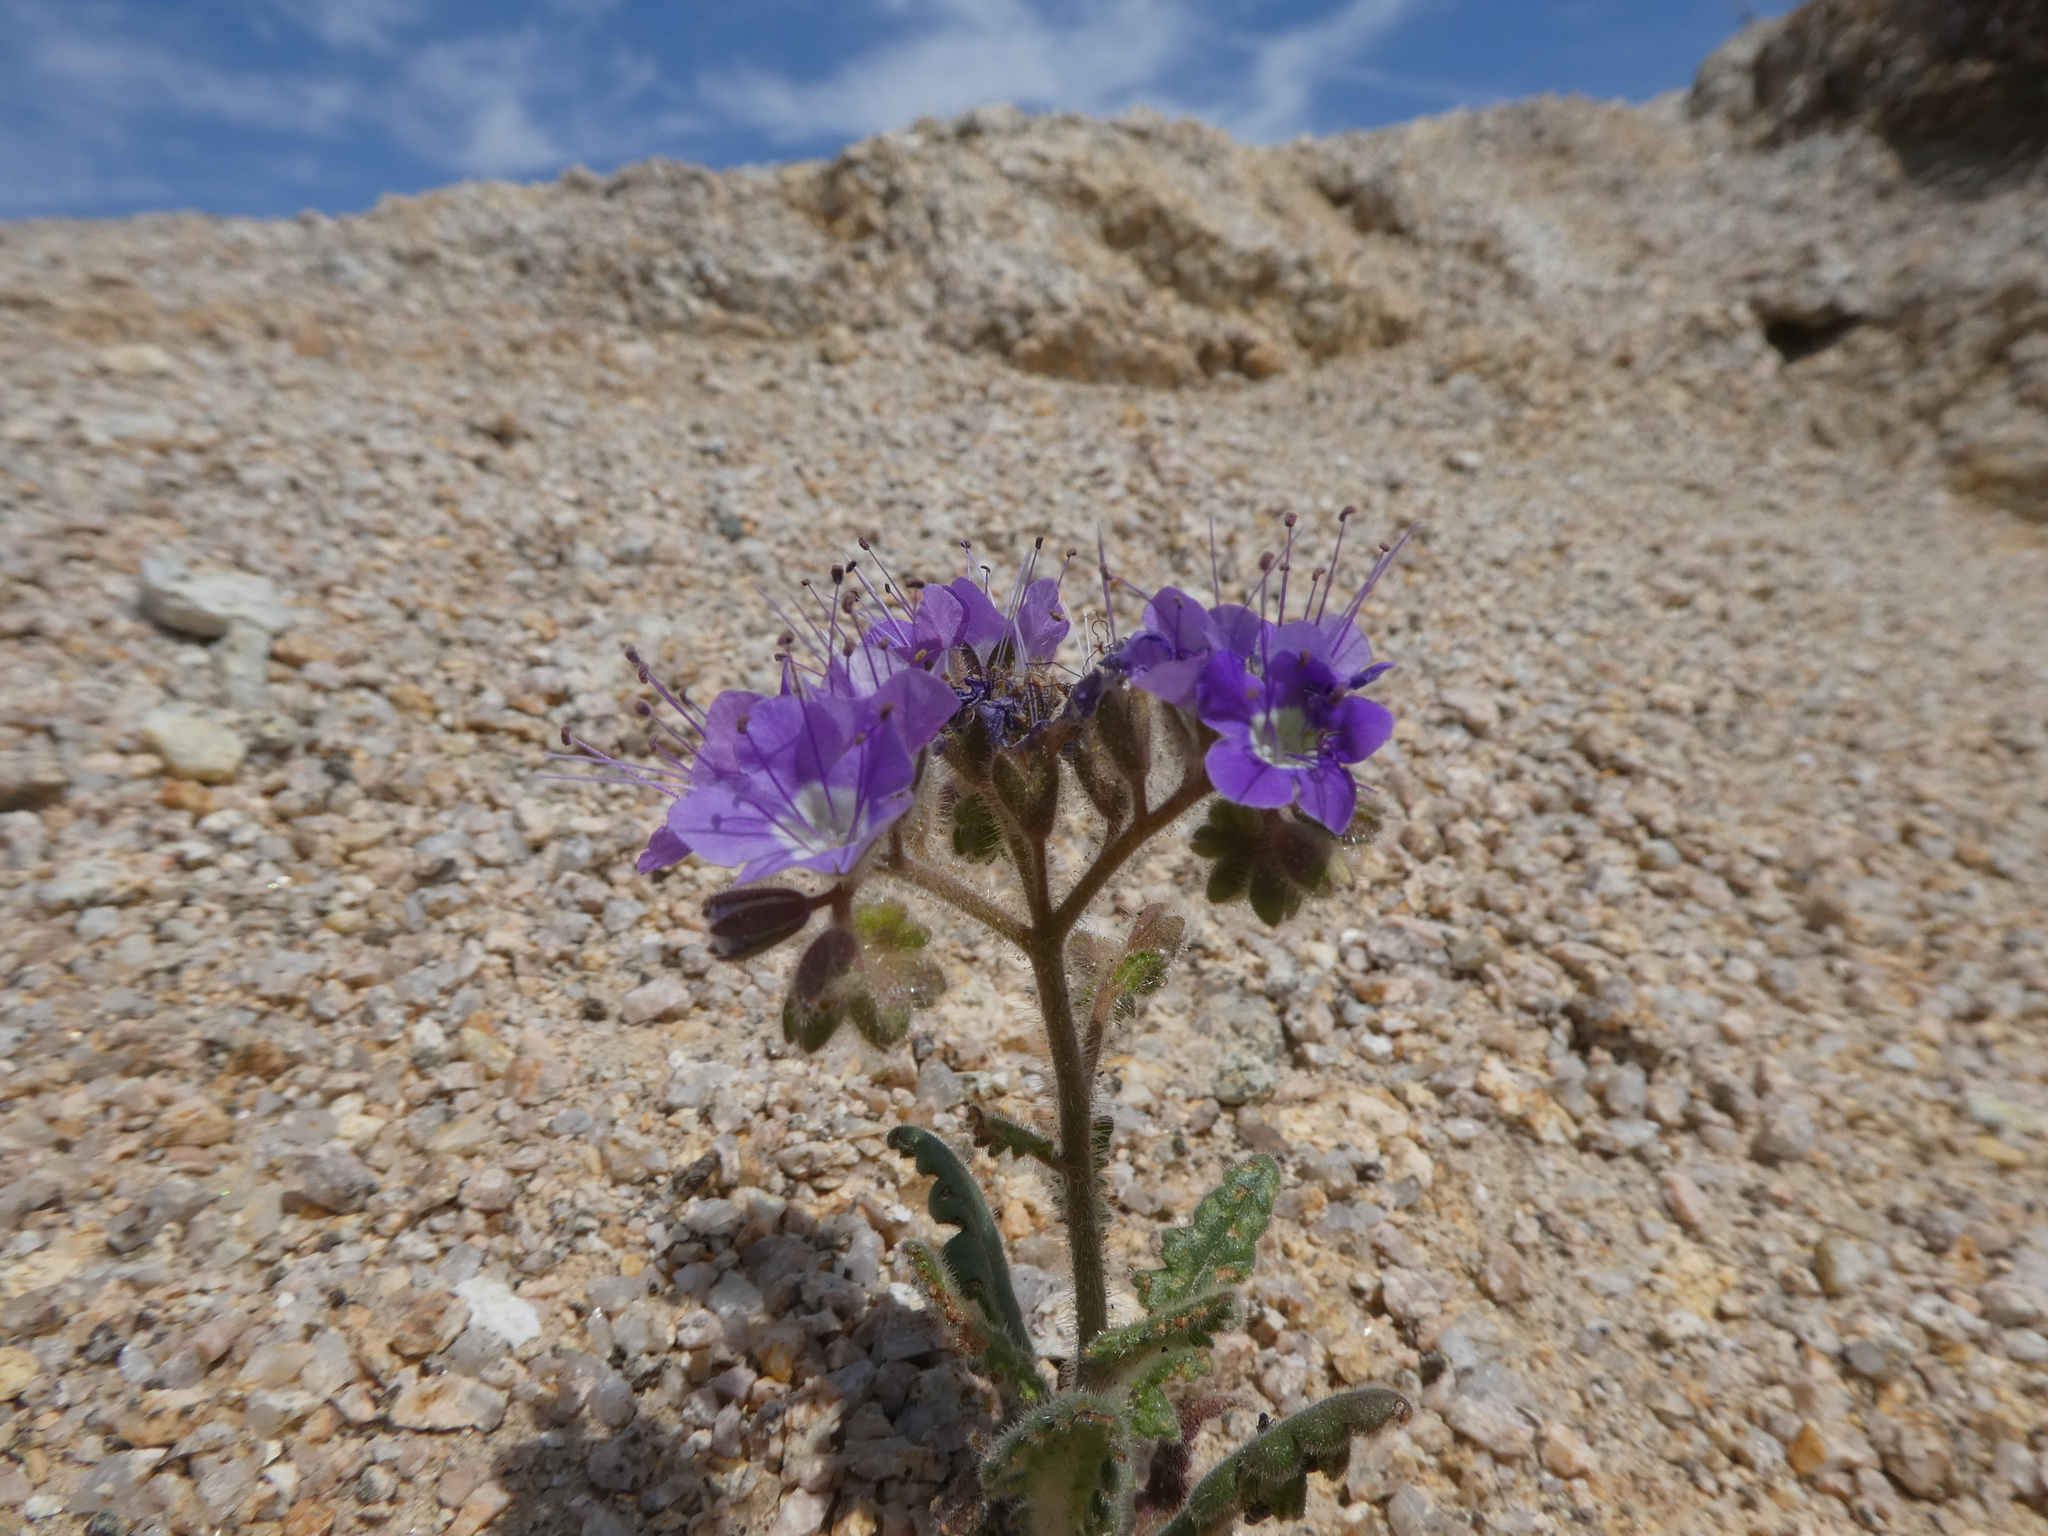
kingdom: Plantae
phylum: Tracheophyta
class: Magnoliopsida
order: Boraginales
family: Hydrophyllaceae
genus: Phacelia
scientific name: Phacelia crenulata
